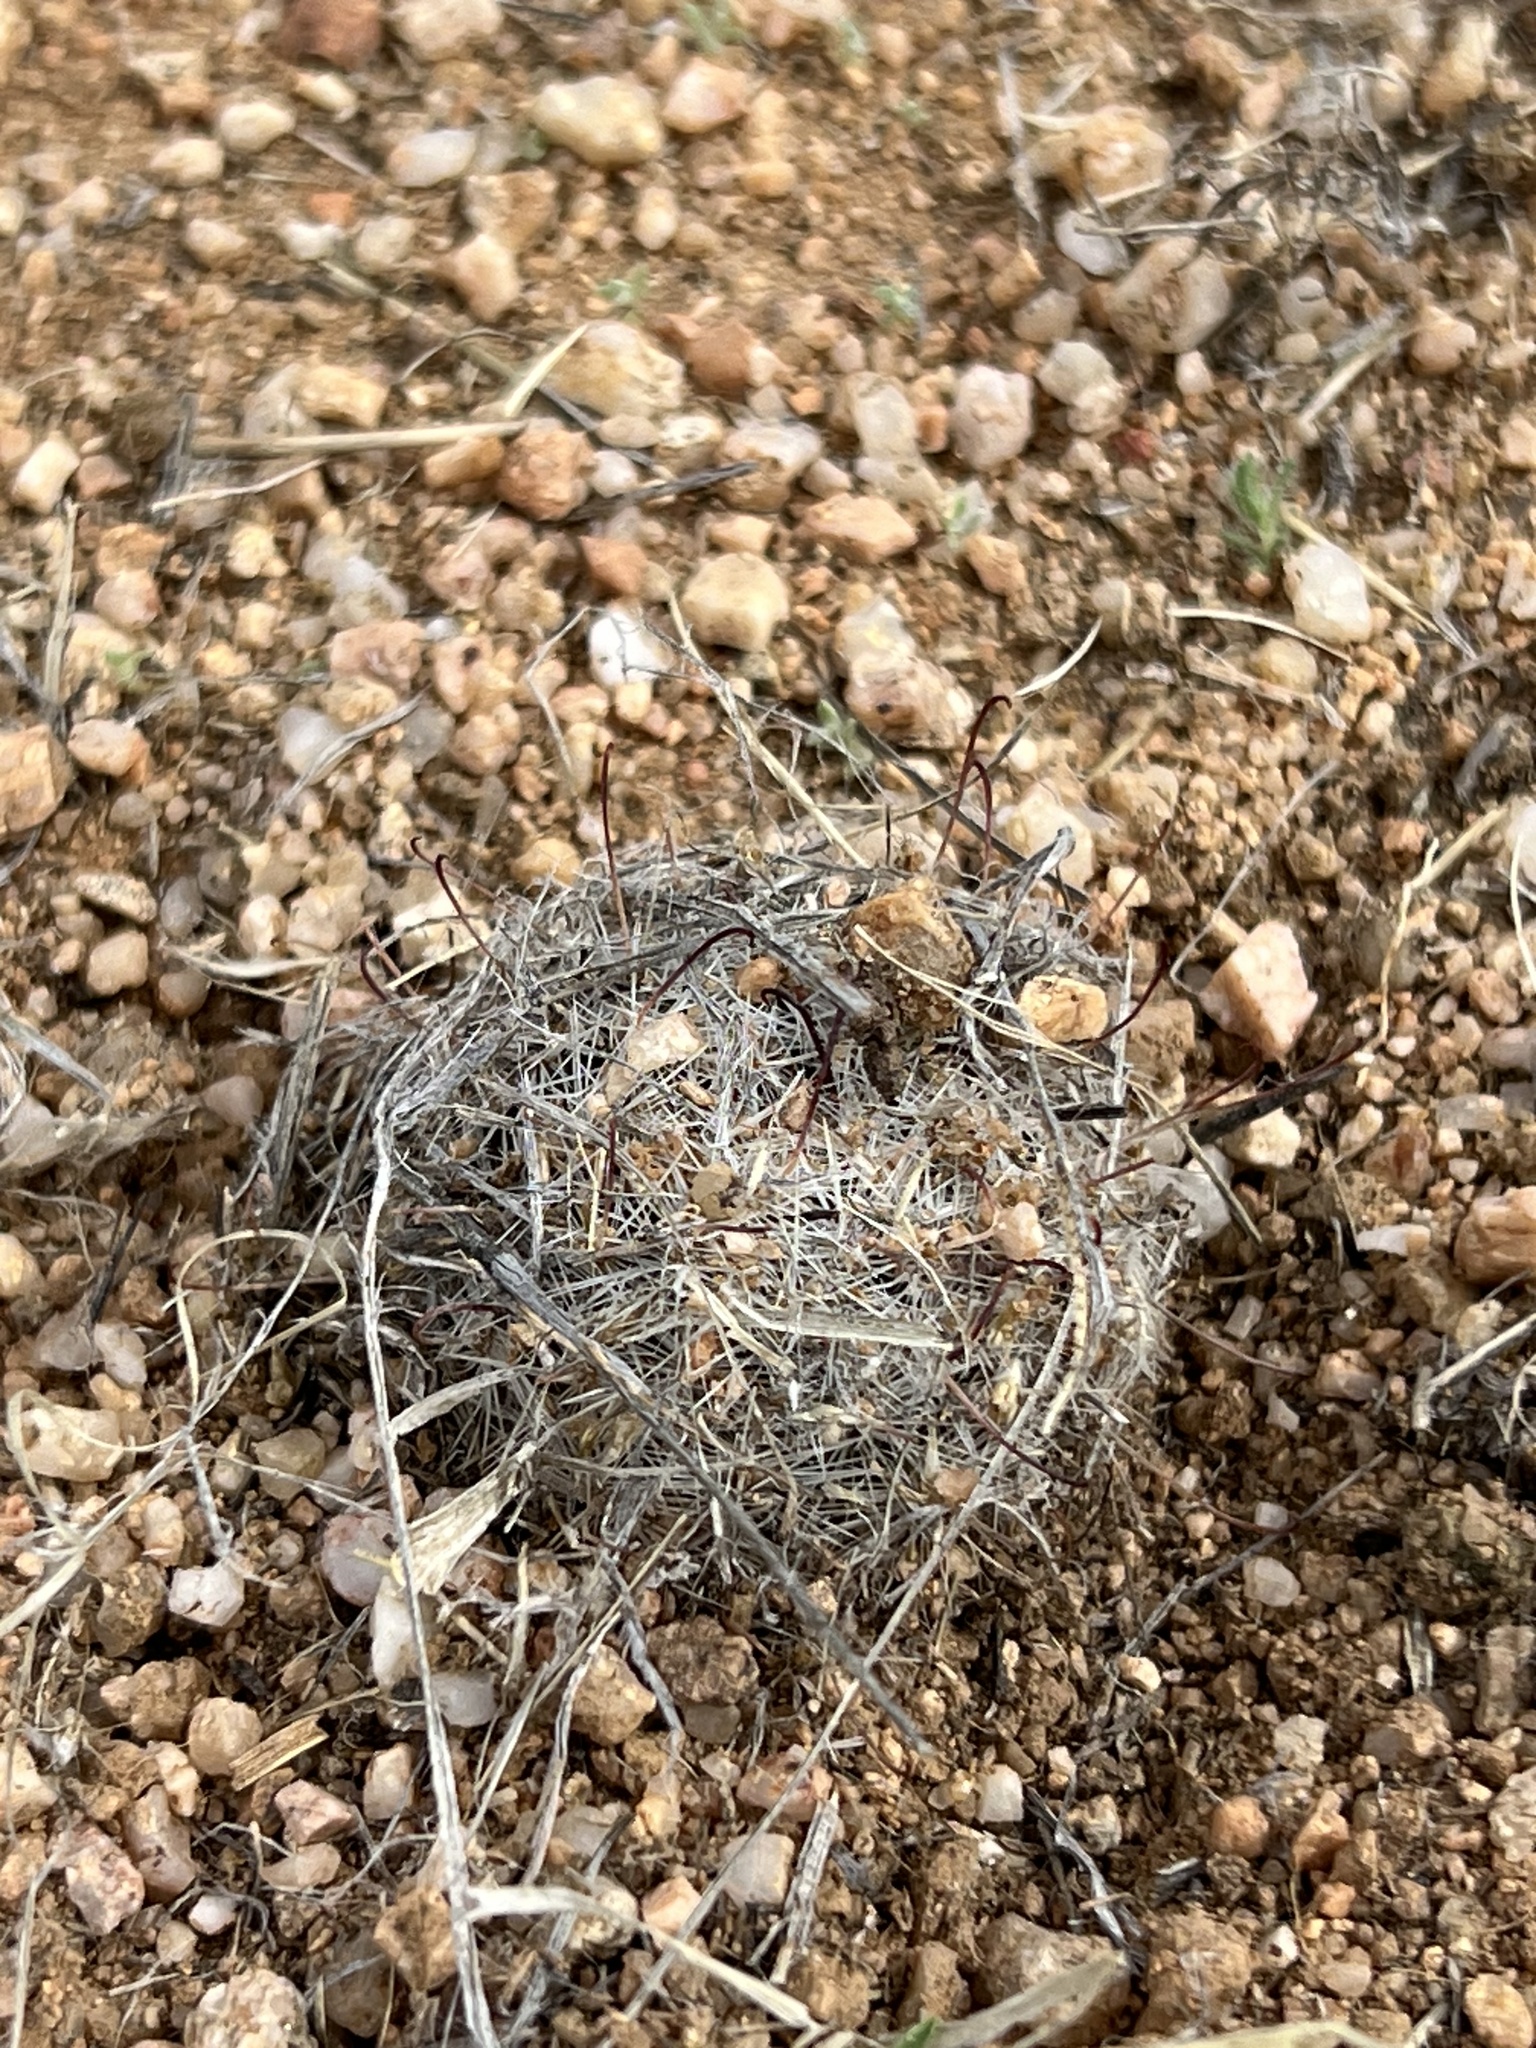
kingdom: Plantae
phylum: Tracheophyta
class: Magnoliopsida
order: Caryophyllales
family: Cactaceae
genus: Cochemiea
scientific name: Cochemiea grahamii
